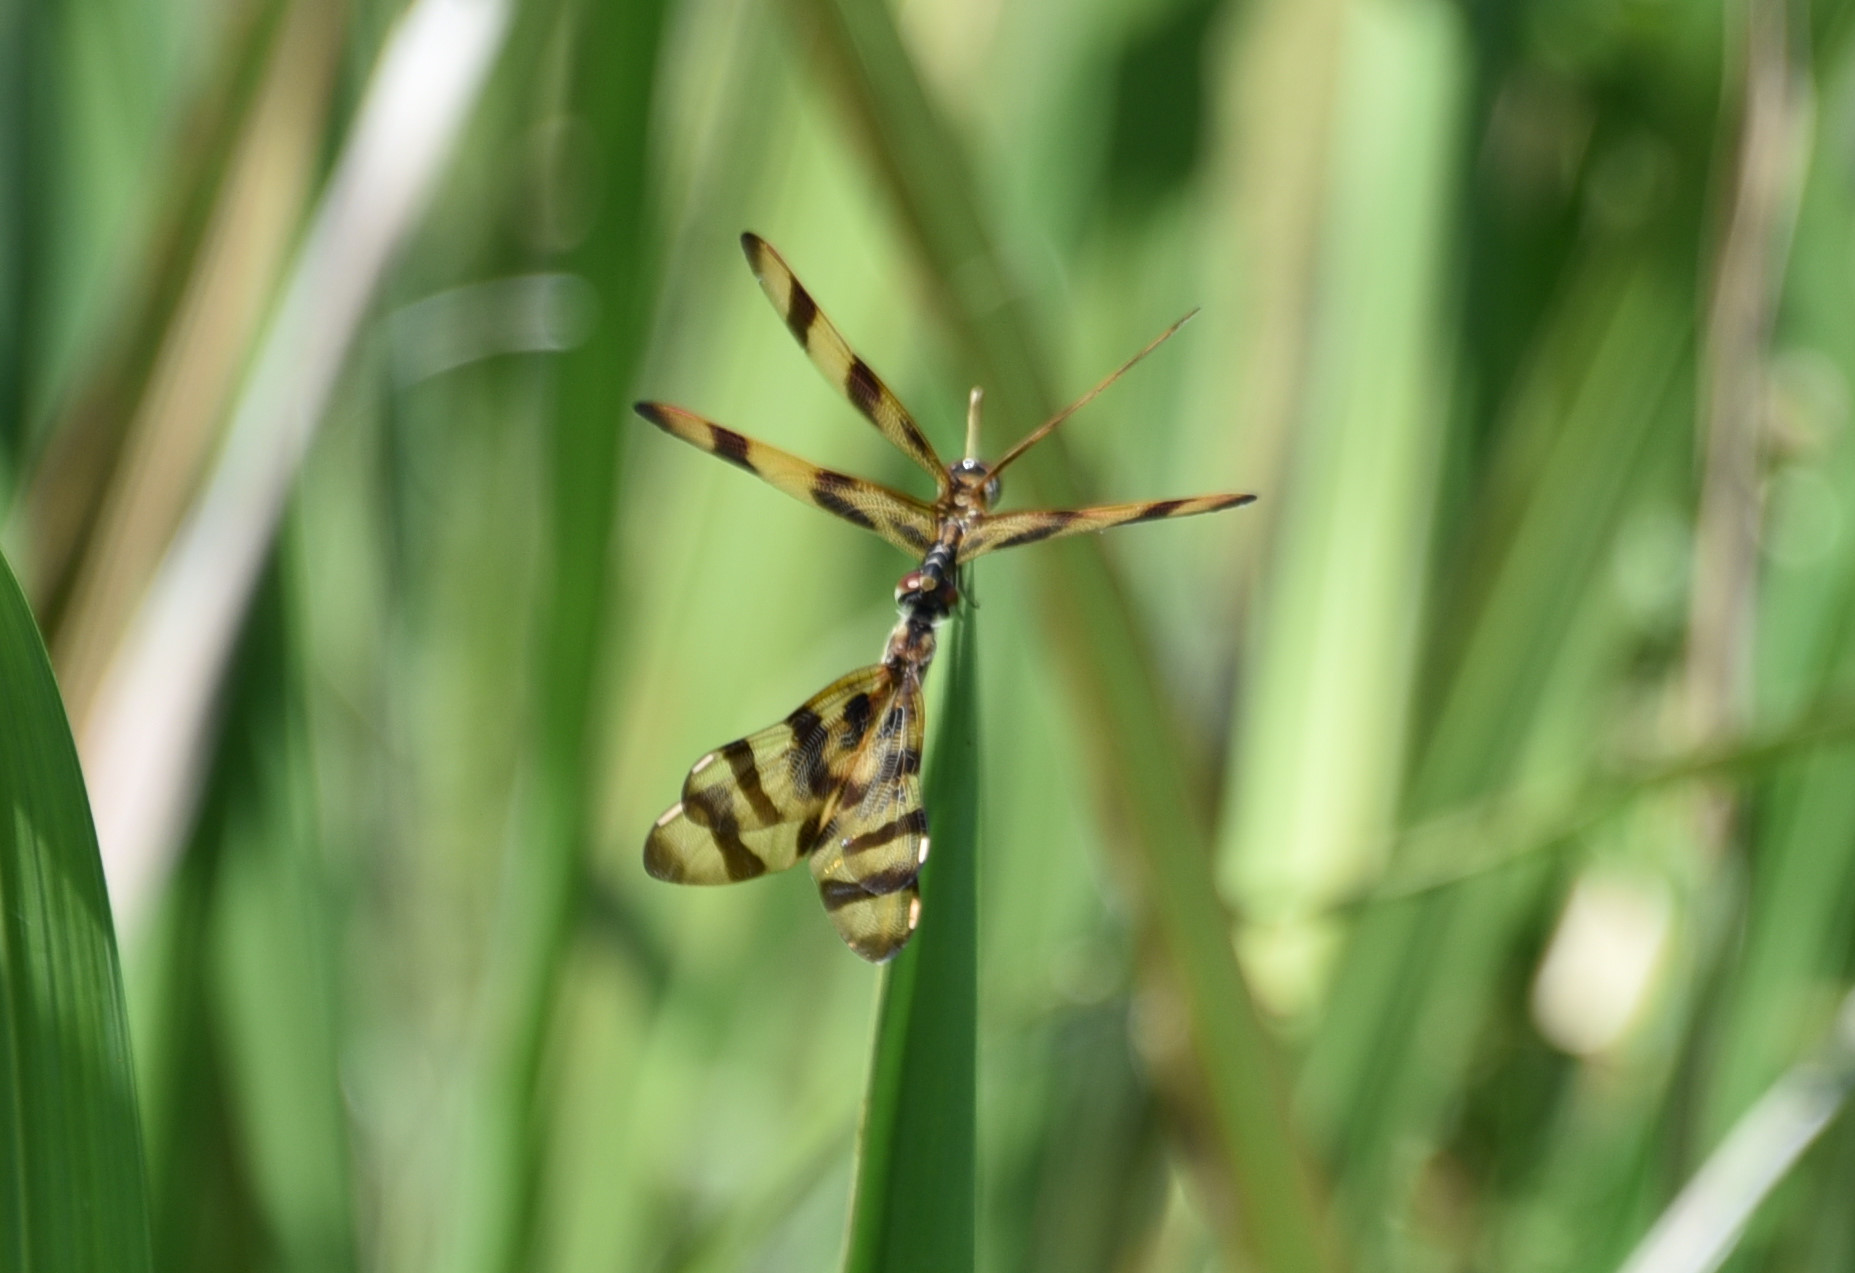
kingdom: Animalia
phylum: Arthropoda
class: Insecta
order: Odonata
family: Libellulidae
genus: Celithemis
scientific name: Celithemis eponina
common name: Halloween pennant
